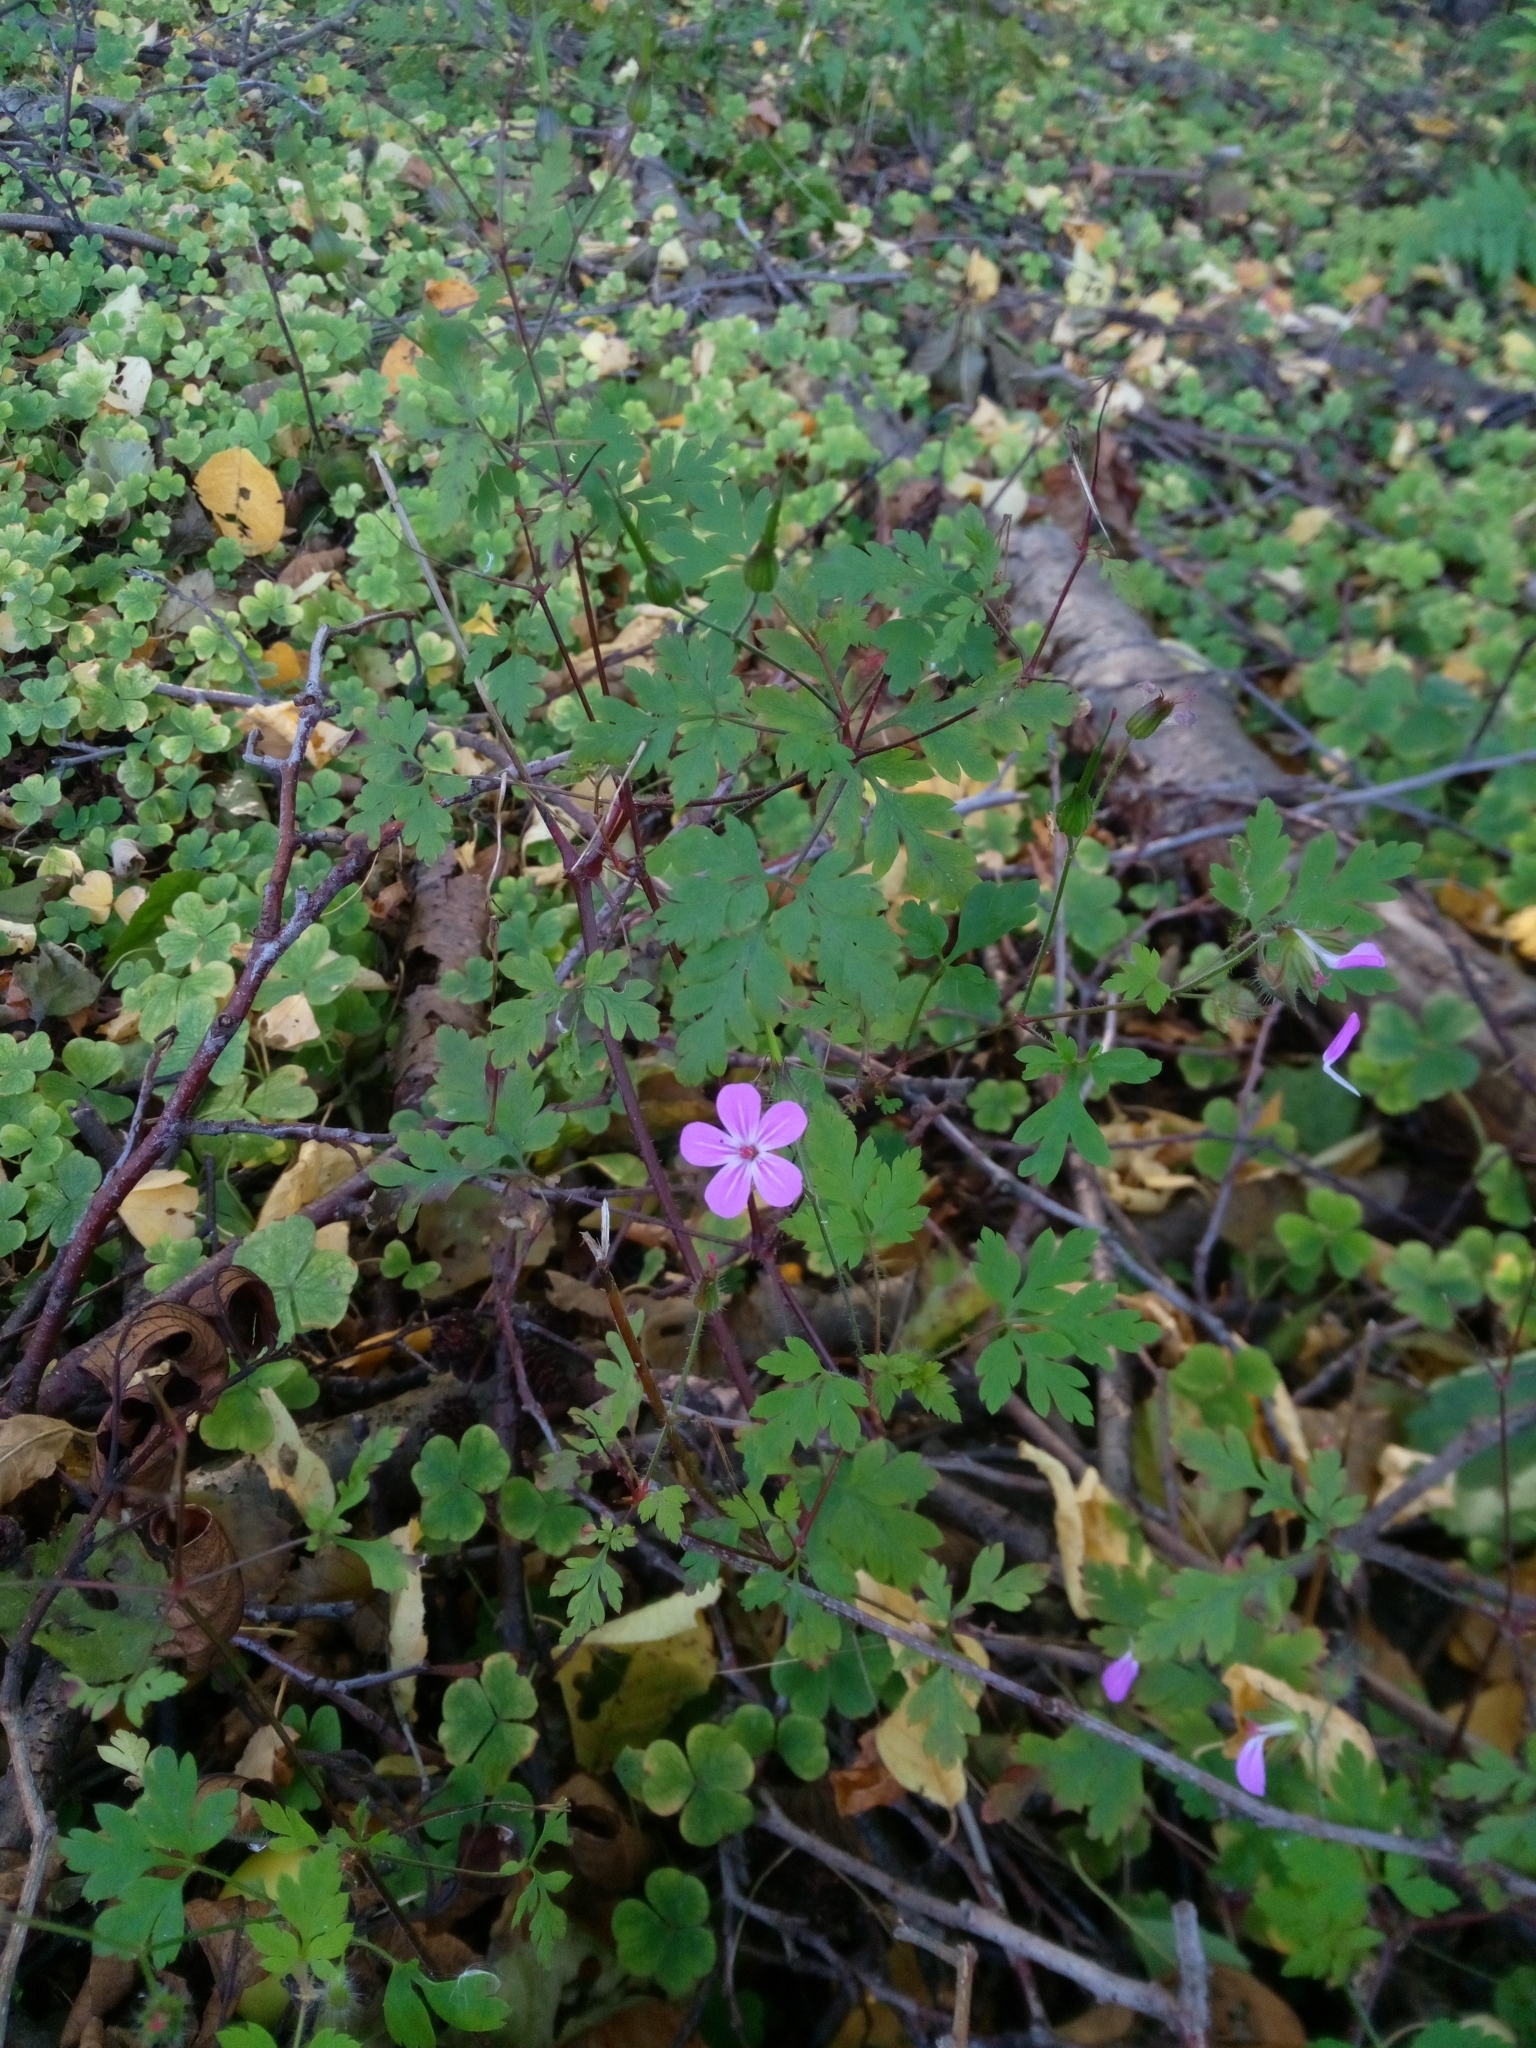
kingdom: Plantae
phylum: Tracheophyta
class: Magnoliopsida
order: Geraniales
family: Geraniaceae
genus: Geranium
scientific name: Geranium robertianum
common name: Herb-robert
